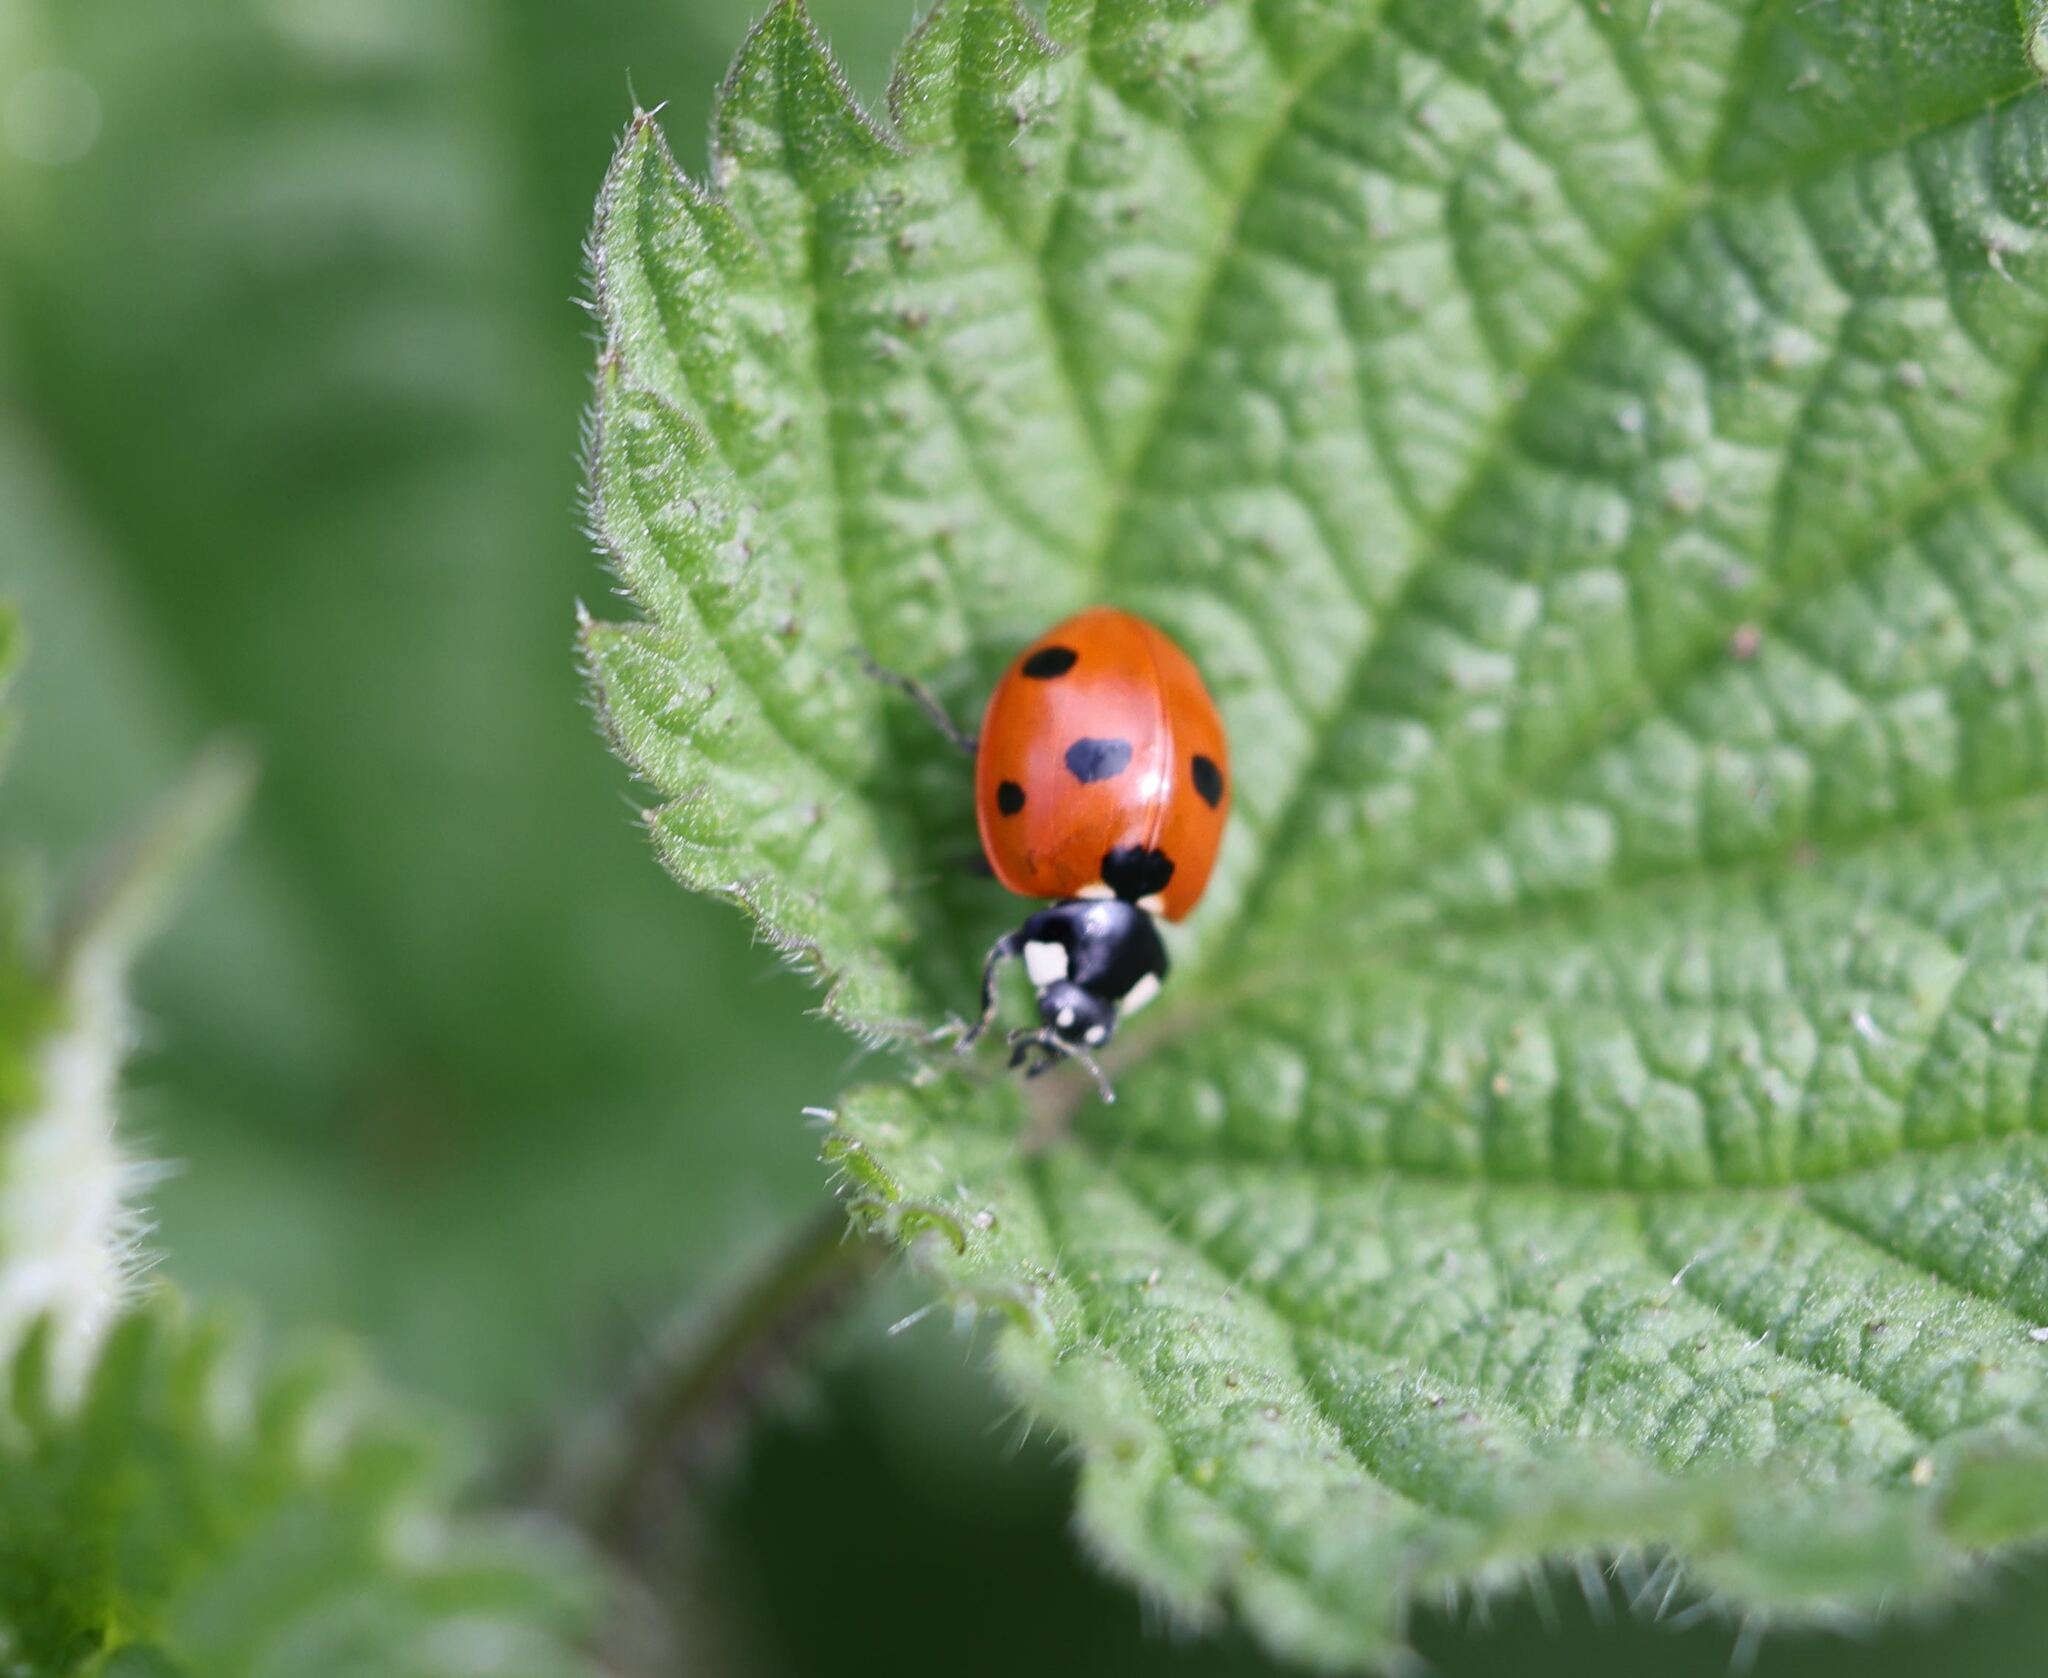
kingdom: Animalia
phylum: Arthropoda
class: Insecta
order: Coleoptera
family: Coccinellidae
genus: Coccinella
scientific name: Coccinella septempunctata
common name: Sevenspotted lady beetle
